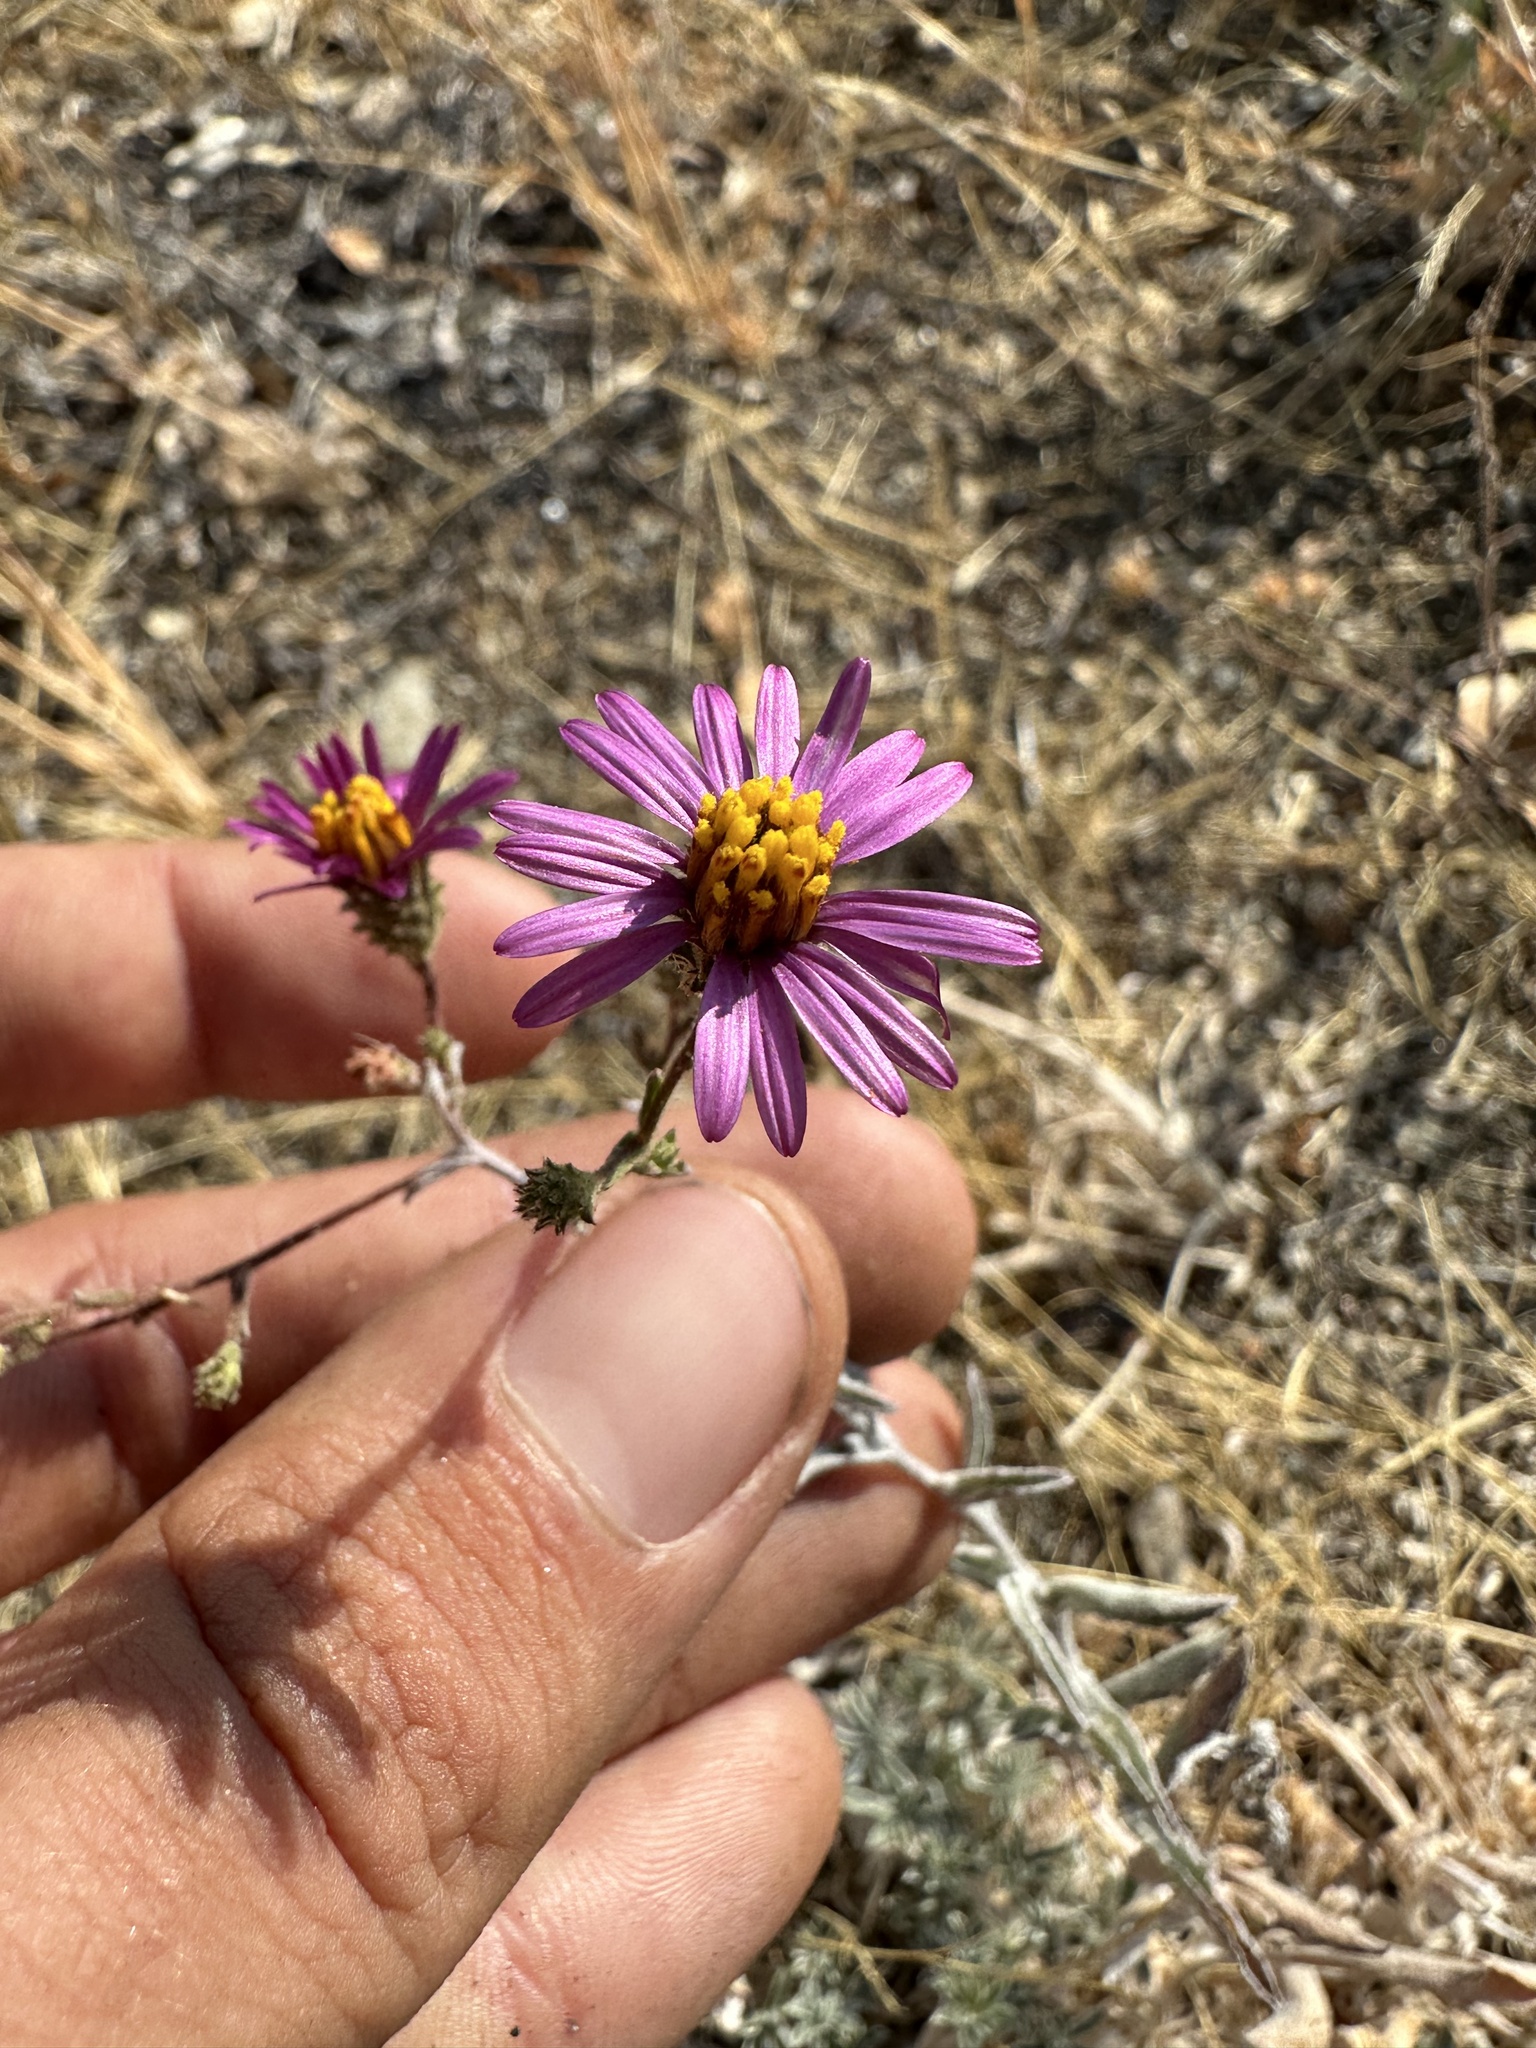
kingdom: Plantae
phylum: Tracheophyta
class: Magnoliopsida
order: Asterales
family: Asteraceae
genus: Corethrogyne
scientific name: Corethrogyne filaginifolia
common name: Sand-aster
